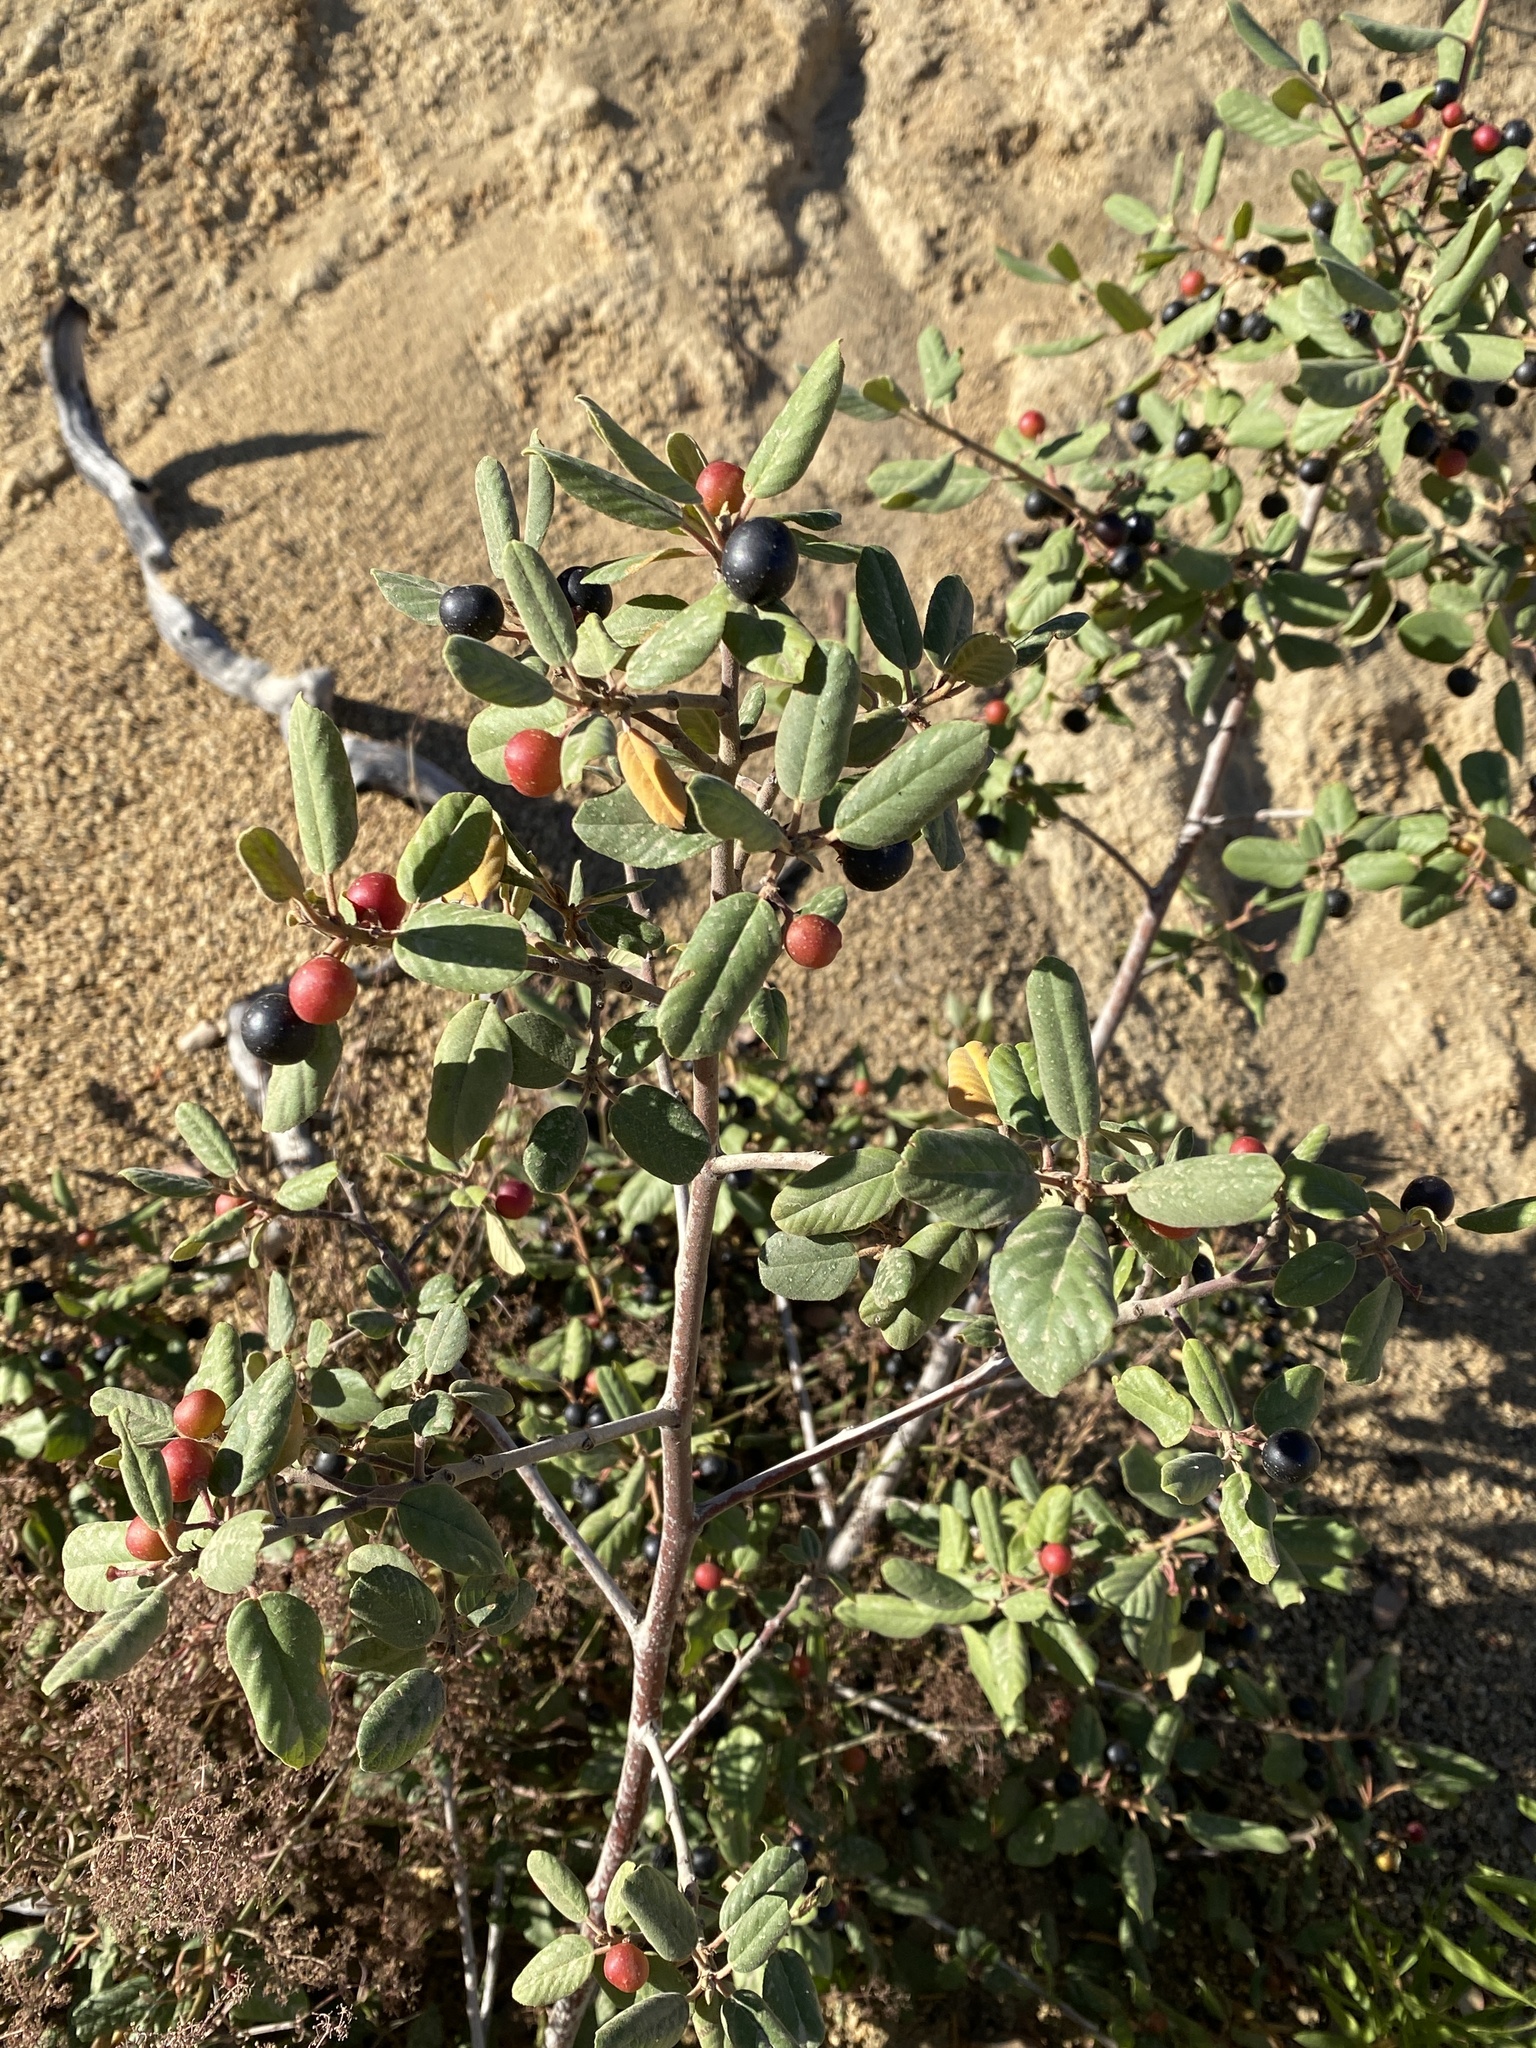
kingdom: Plantae
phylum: Tracheophyta
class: Magnoliopsida
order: Rosales
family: Rhamnaceae
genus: Frangula
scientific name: Frangula californica
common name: California buckthorn
